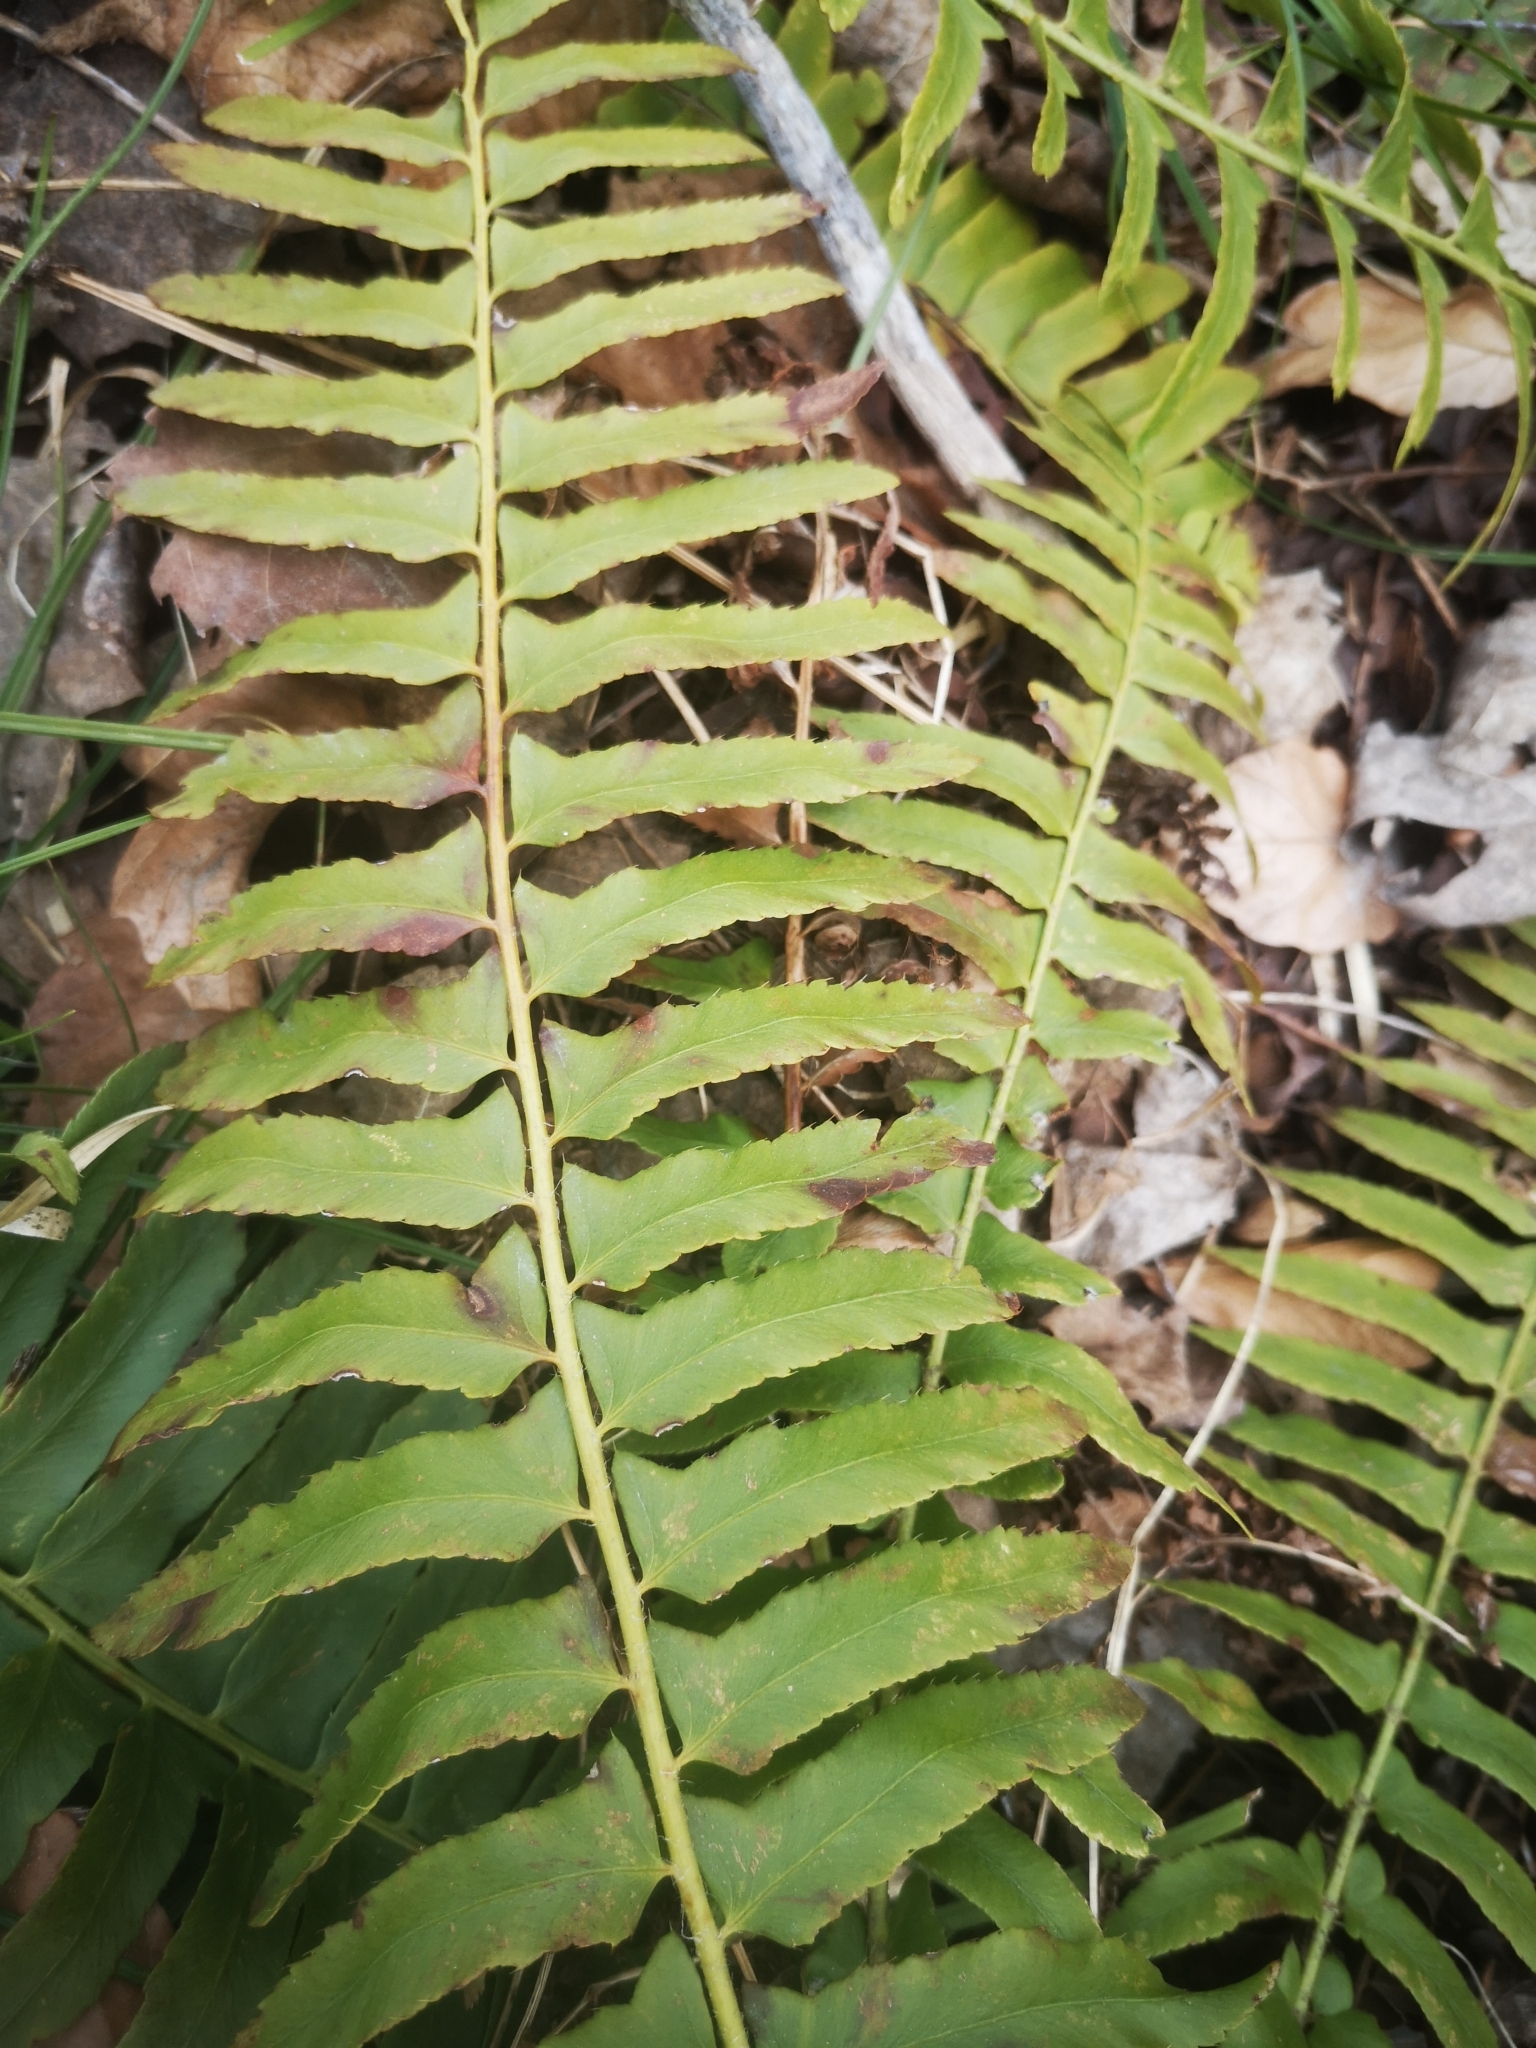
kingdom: Plantae
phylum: Tracheophyta
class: Polypodiopsida
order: Polypodiales
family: Dryopteridaceae
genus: Polystichum
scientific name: Polystichum acrostichoides
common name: Christmas fern
